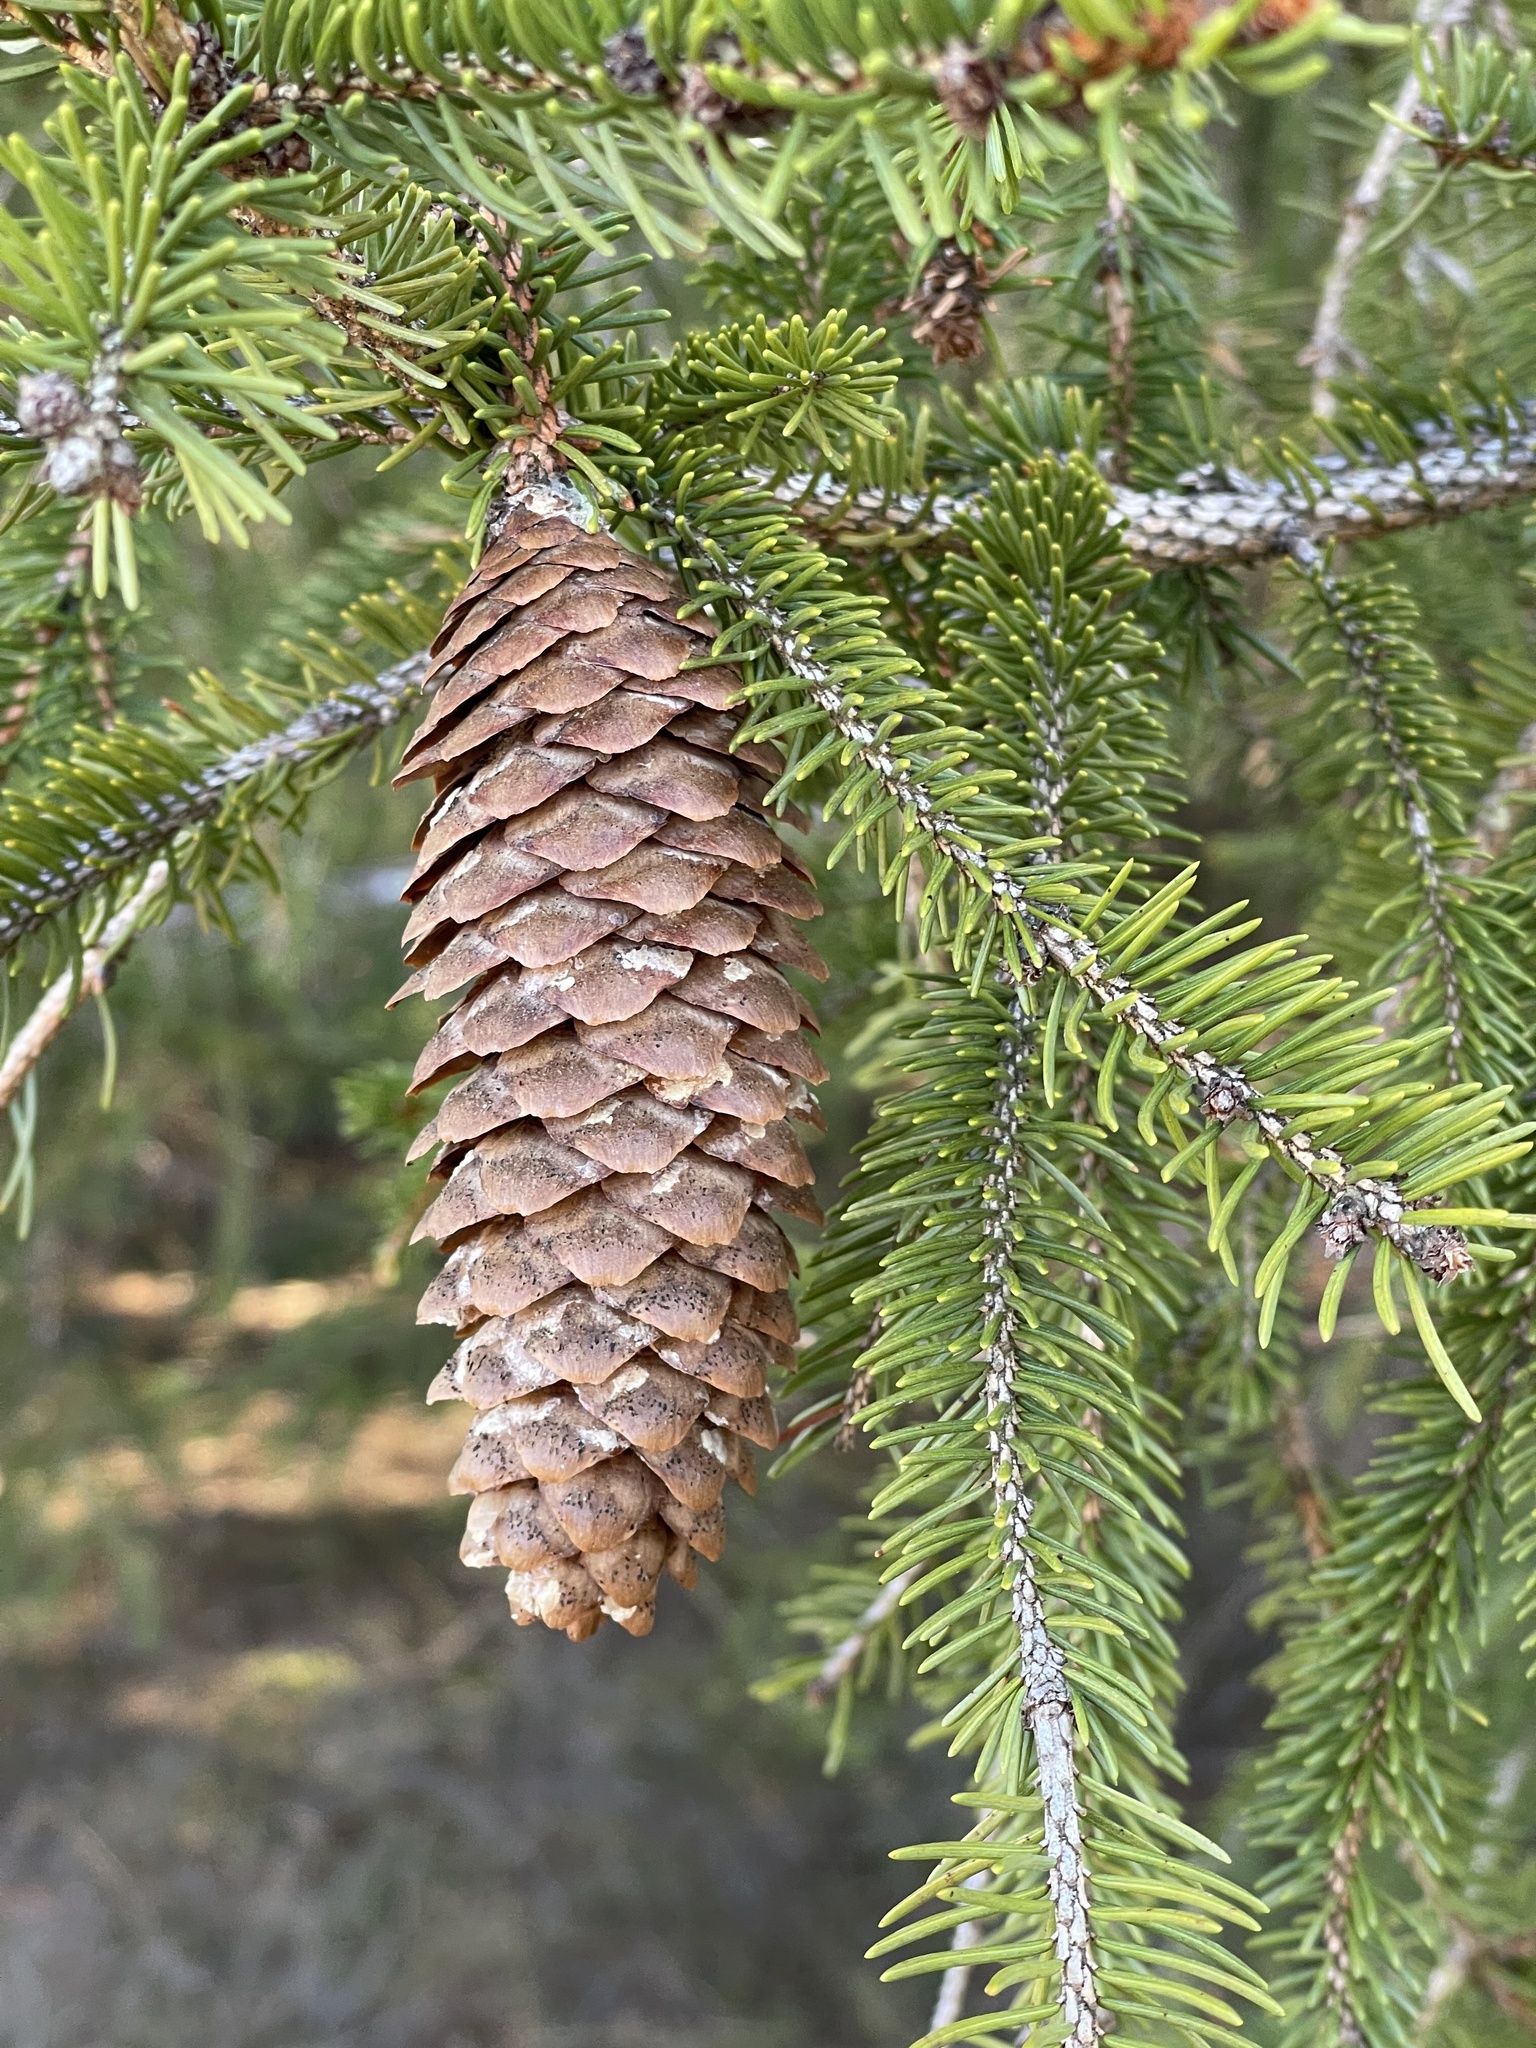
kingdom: Plantae
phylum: Tracheophyta
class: Pinopsida
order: Pinales
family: Pinaceae
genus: Picea
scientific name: Picea abies
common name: Norway spruce
